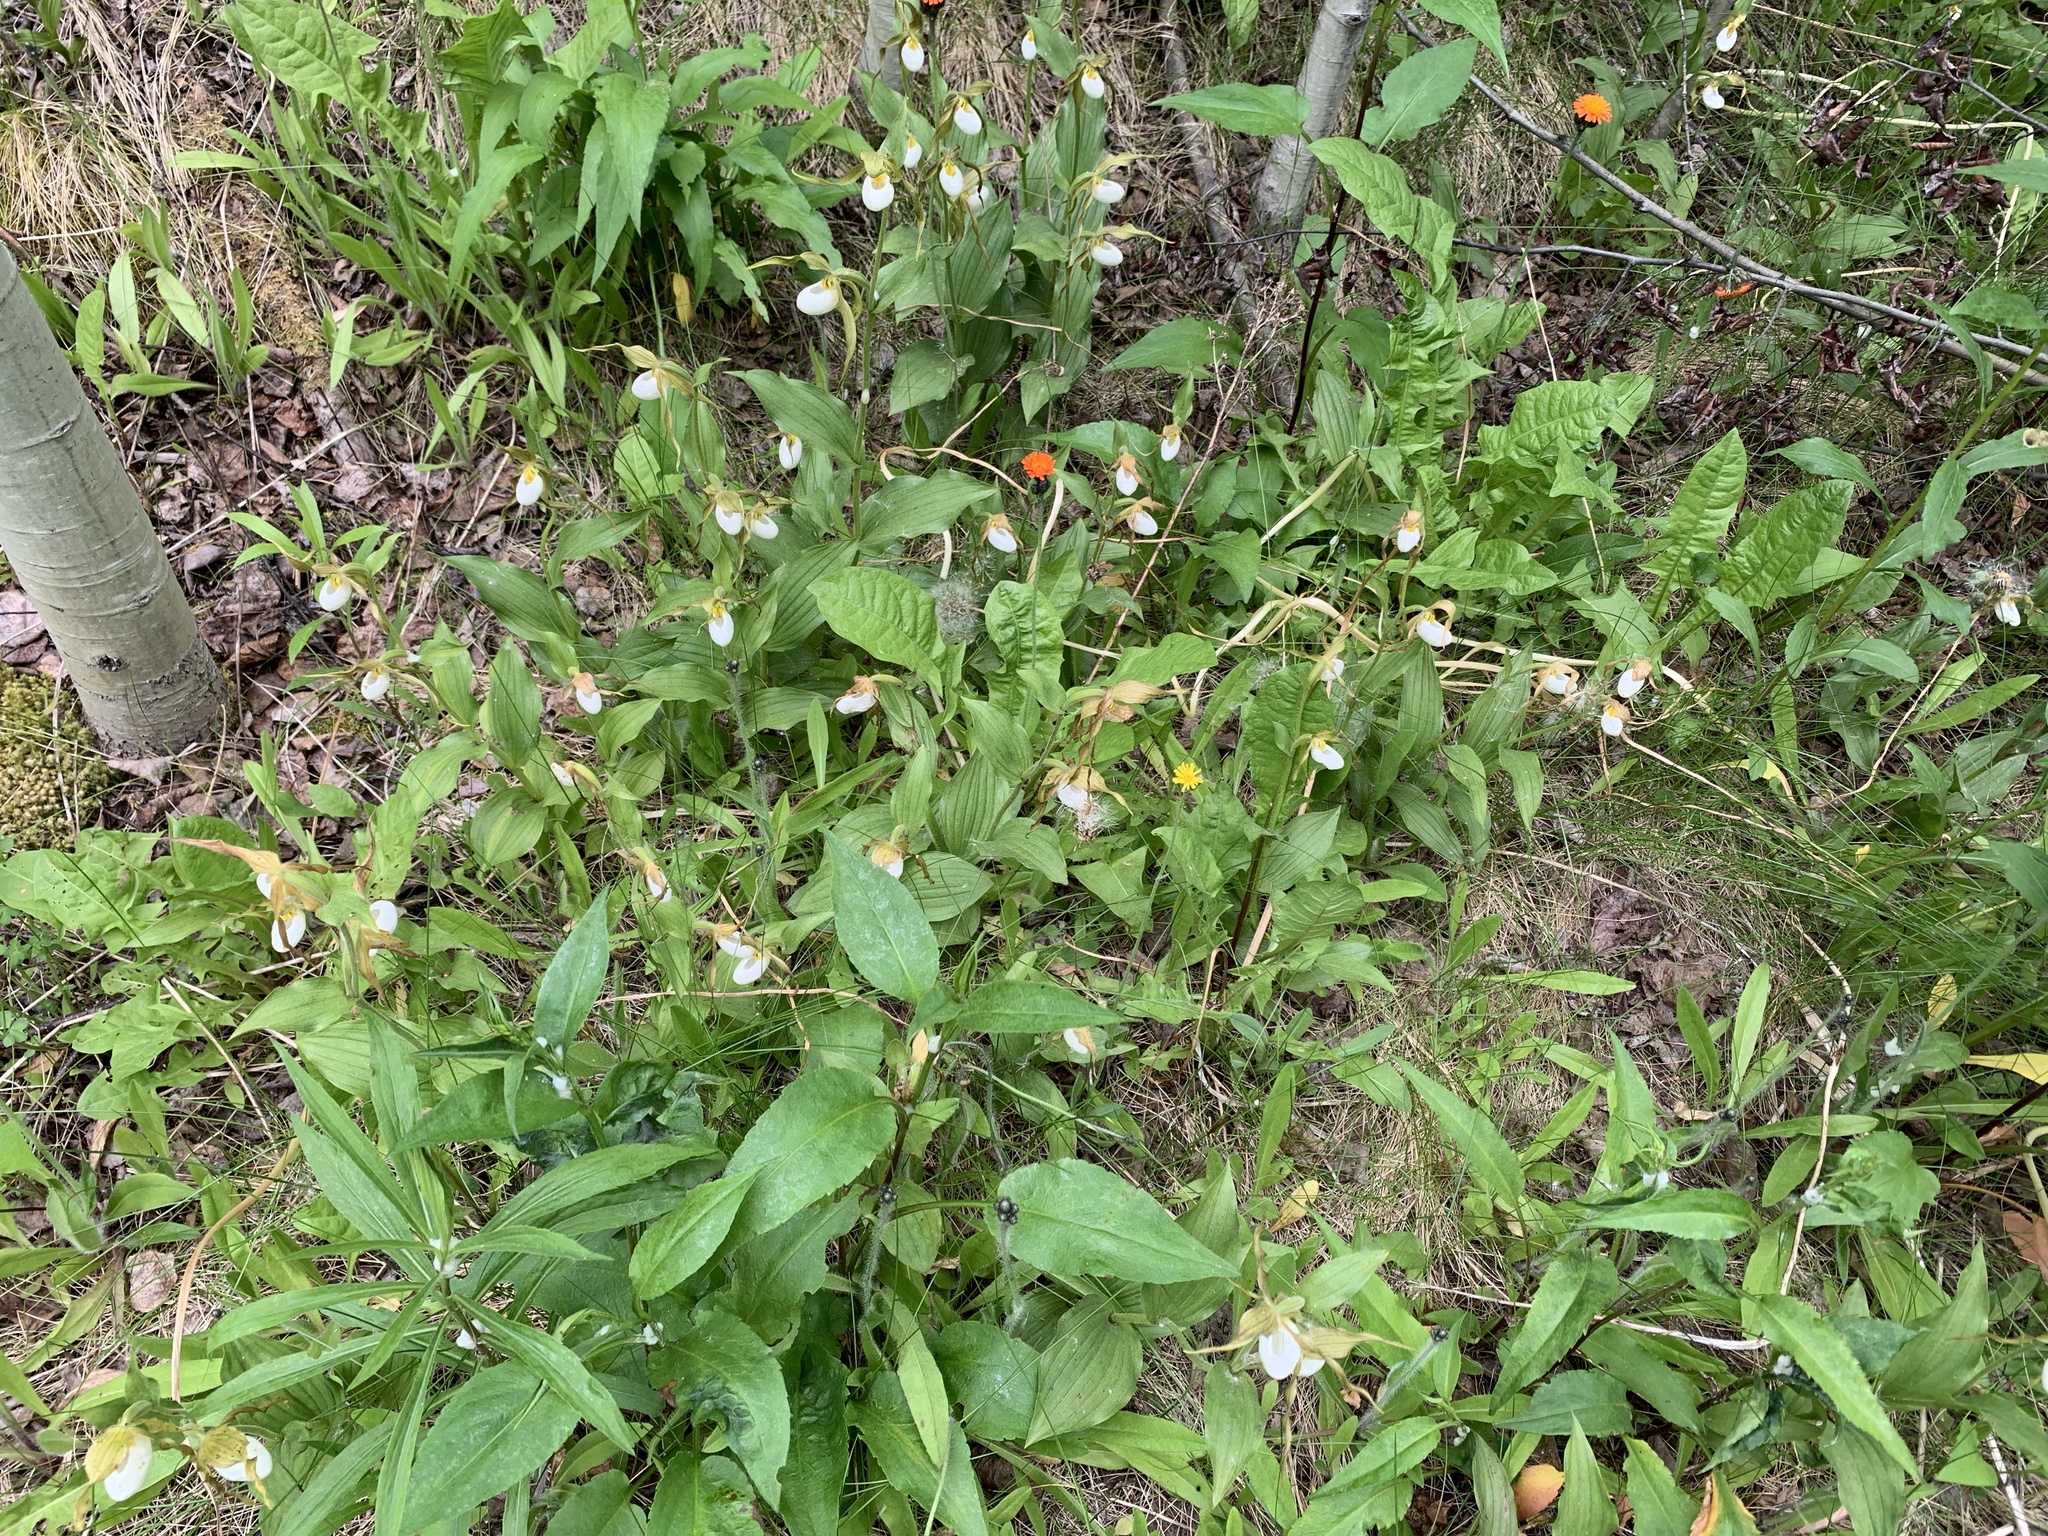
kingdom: Plantae
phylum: Tracheophyta
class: Liliopsida
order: Asparagales
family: Orchidaceae
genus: Cypripedium
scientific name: Cypripedium montanum
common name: Mountain lady's-slipper
